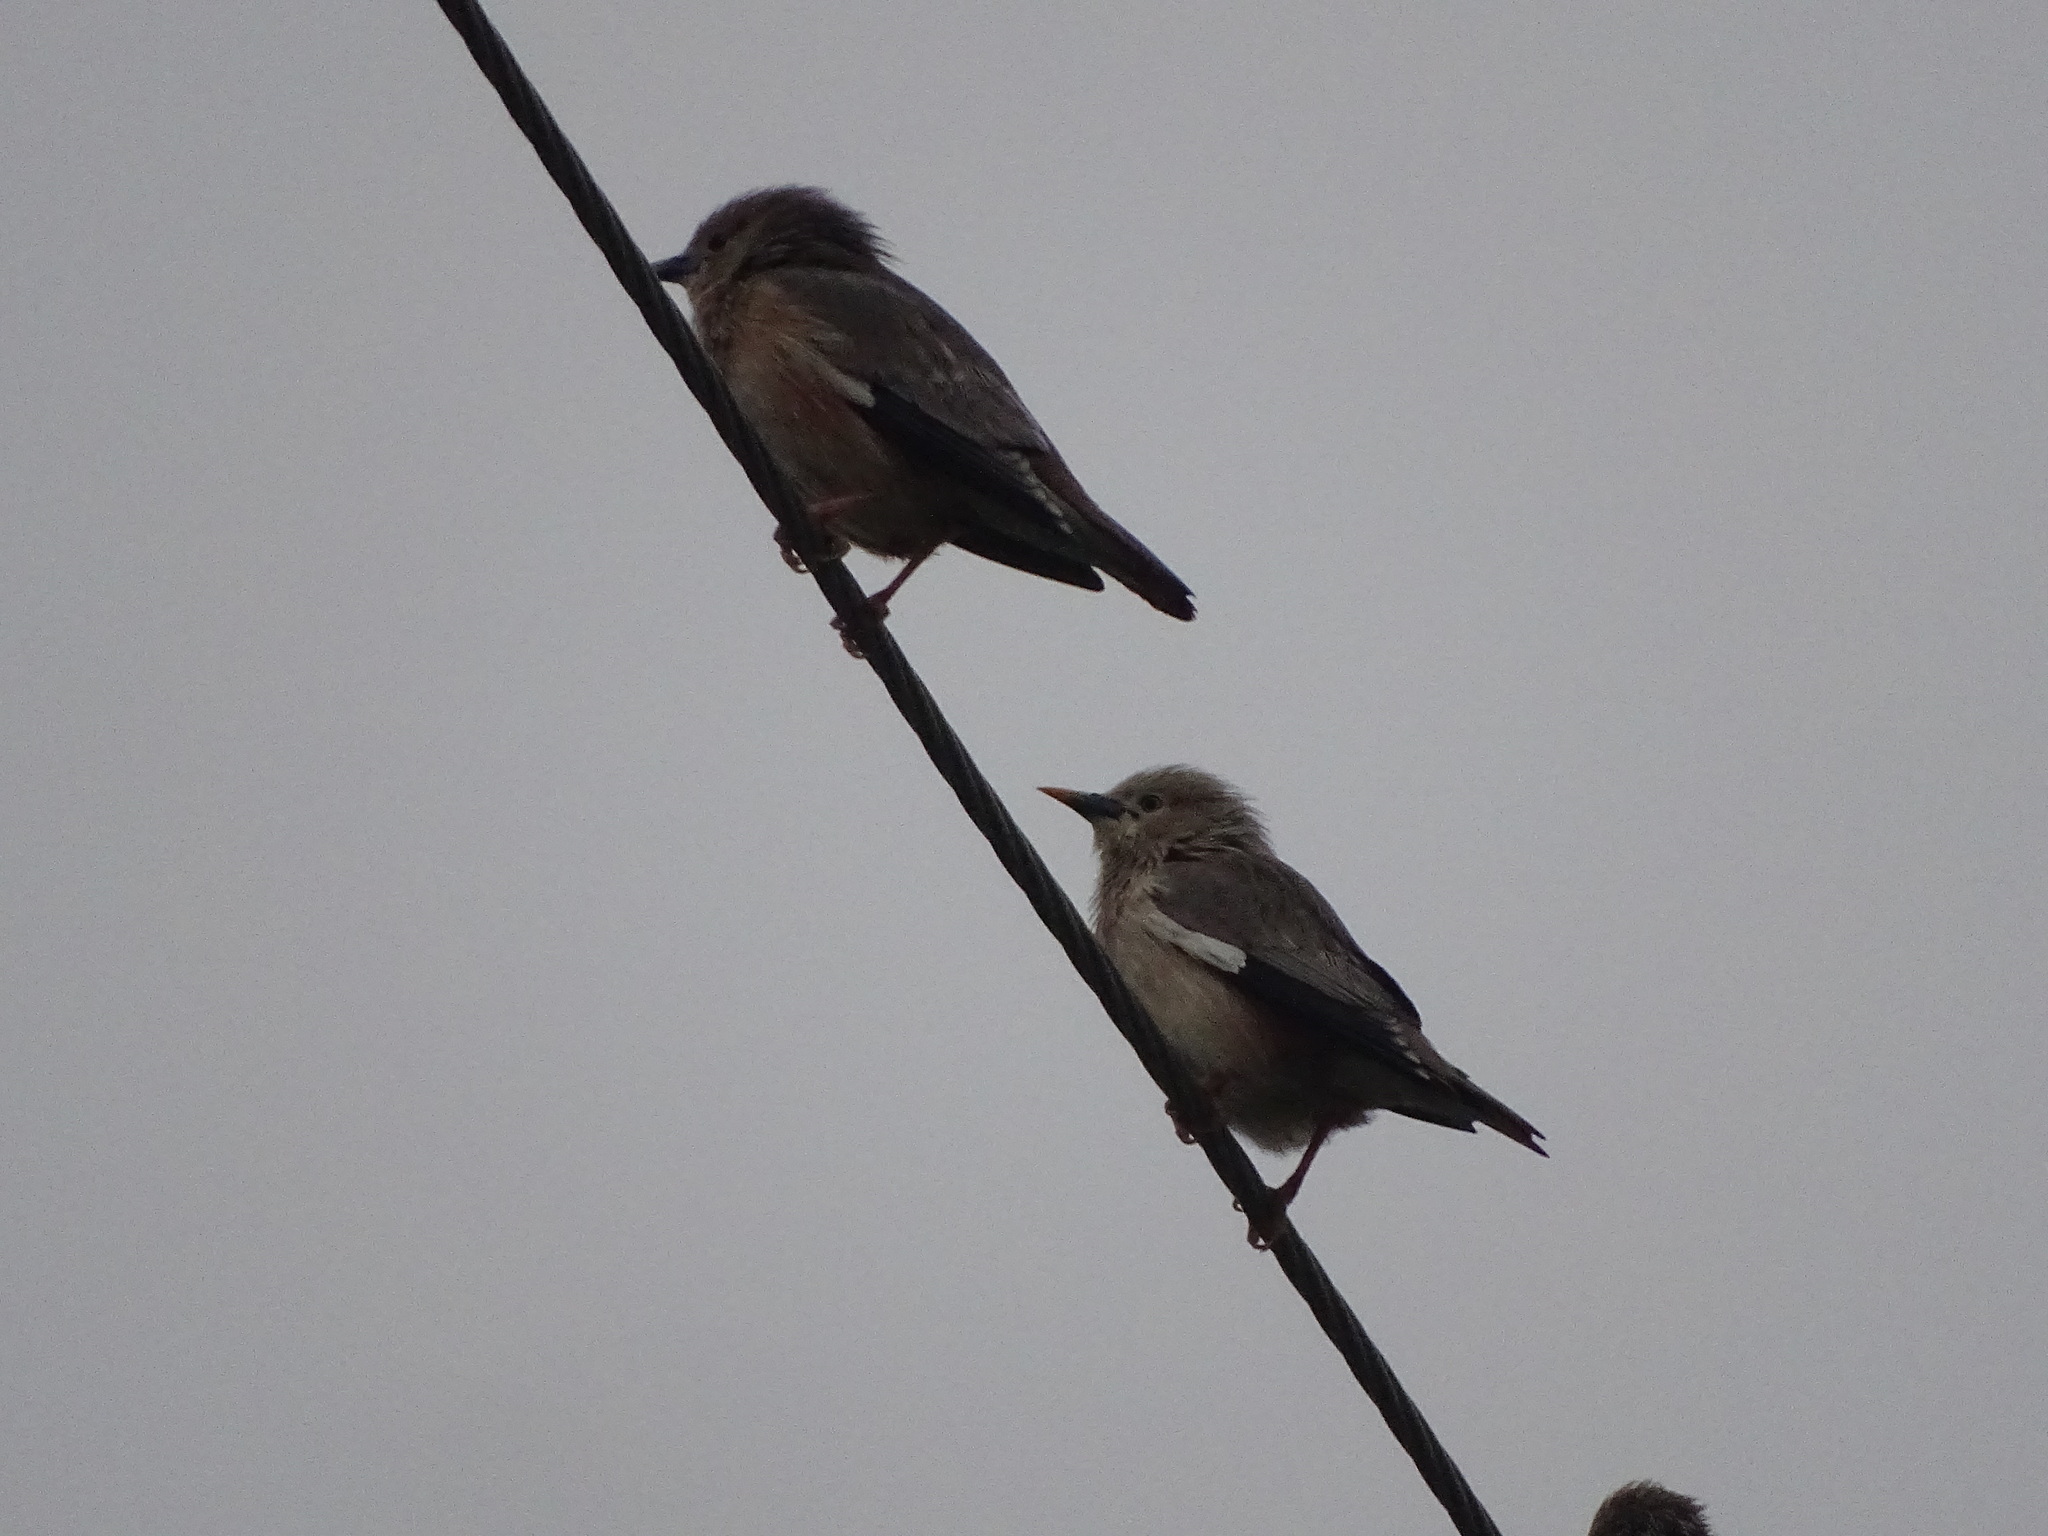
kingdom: Animalia
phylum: Chordata
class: Aves
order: Passeriformes
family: Sturnidae
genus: Sturnia
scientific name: Sturnia malabarica
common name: Chestnut-tailed starling
